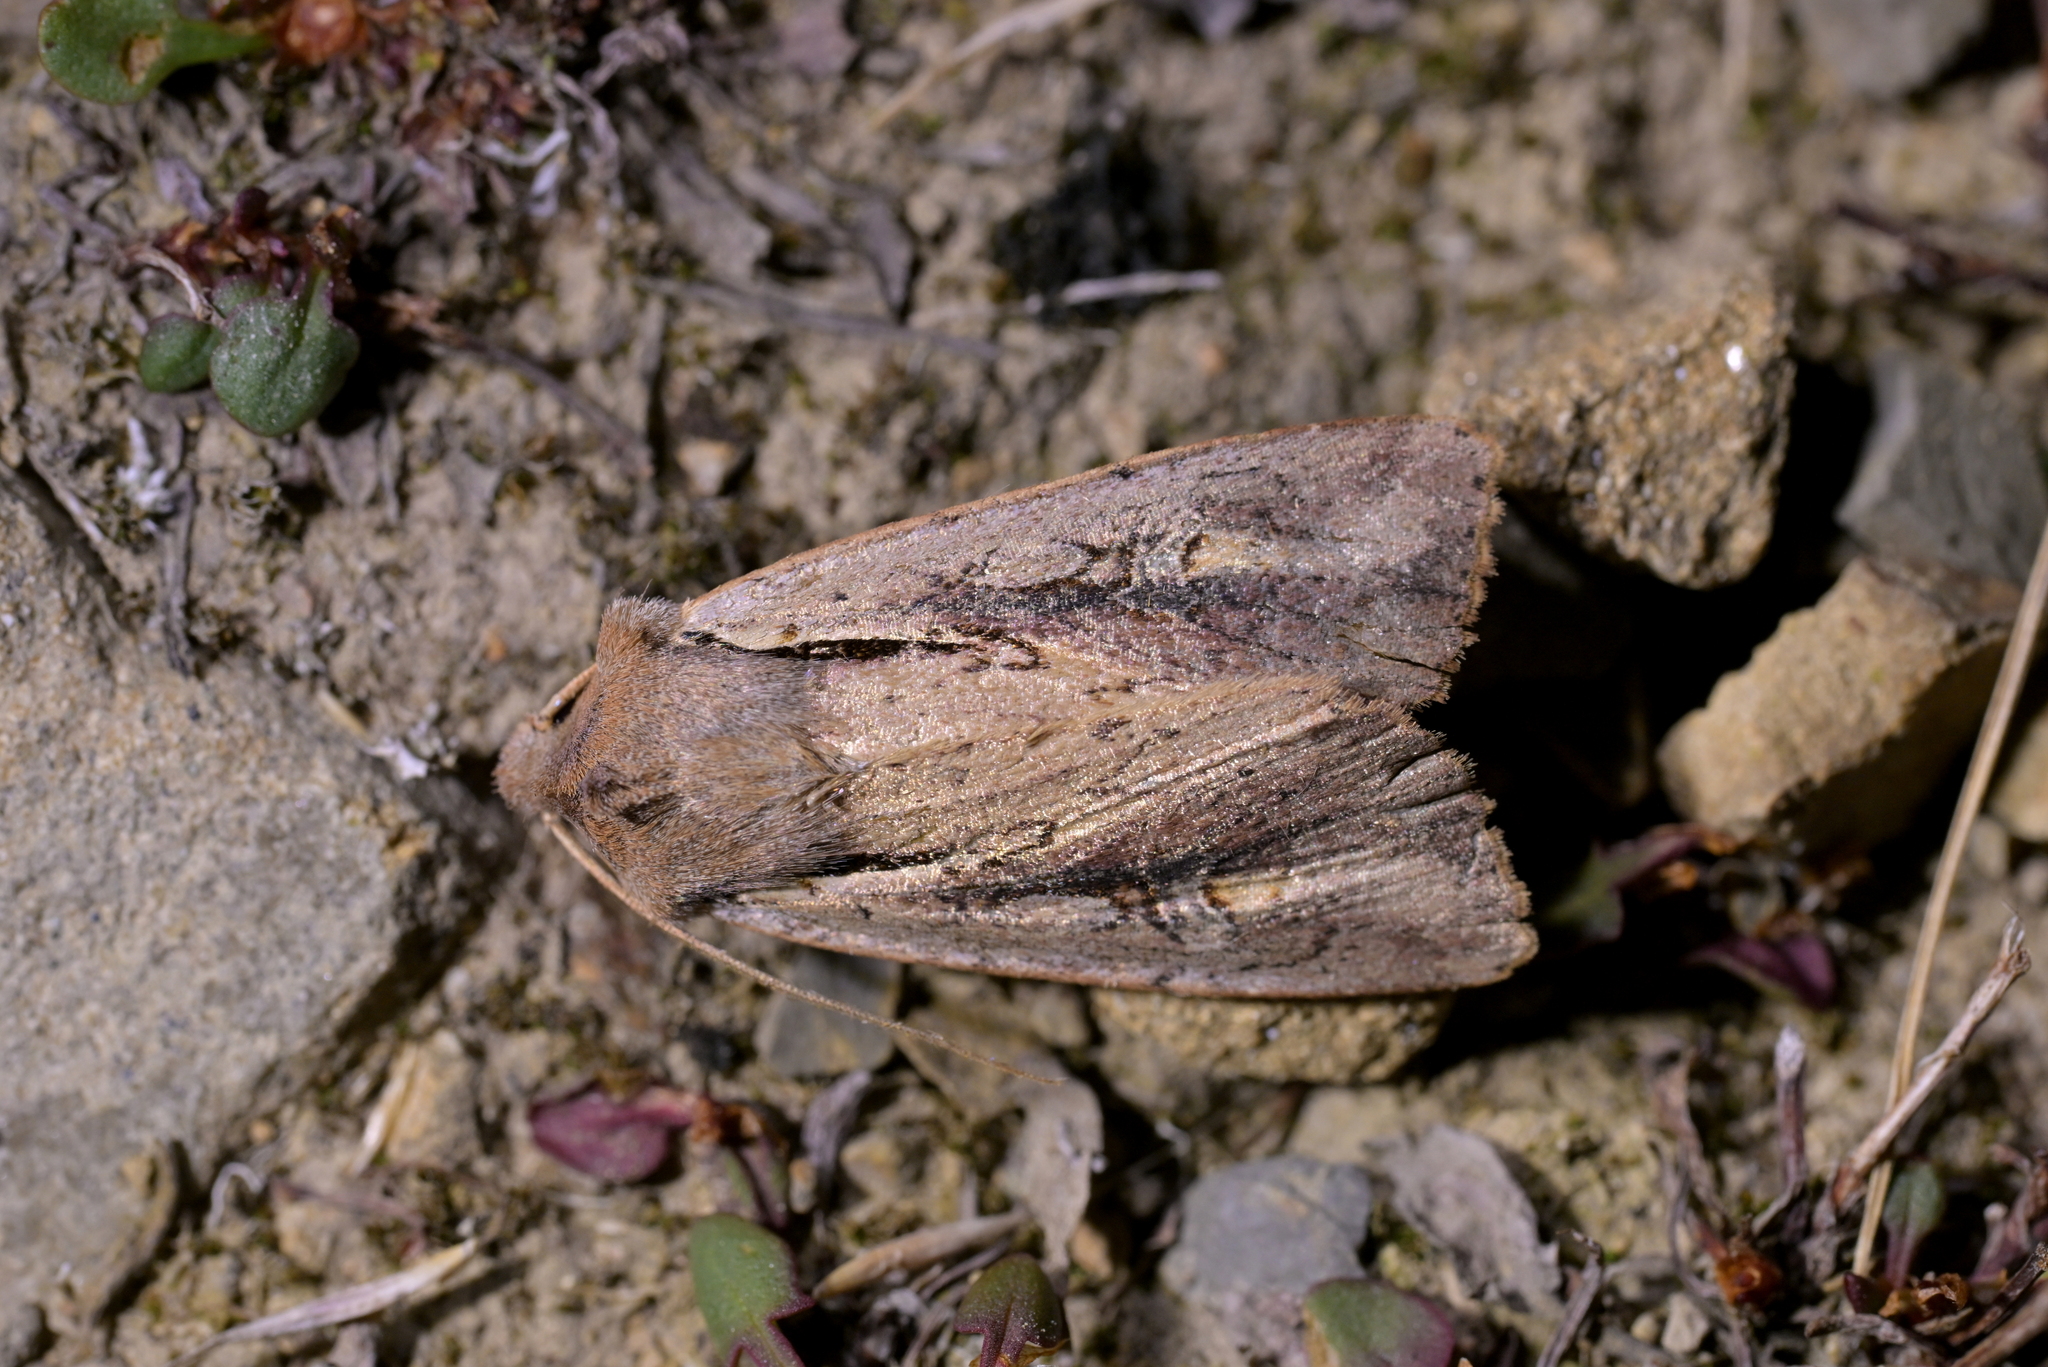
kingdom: Animalia
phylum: Arthropoda
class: Insecta
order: Lepidoptera
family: Noctuidae
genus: Ichneutica
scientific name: Ichneutica atristriga
